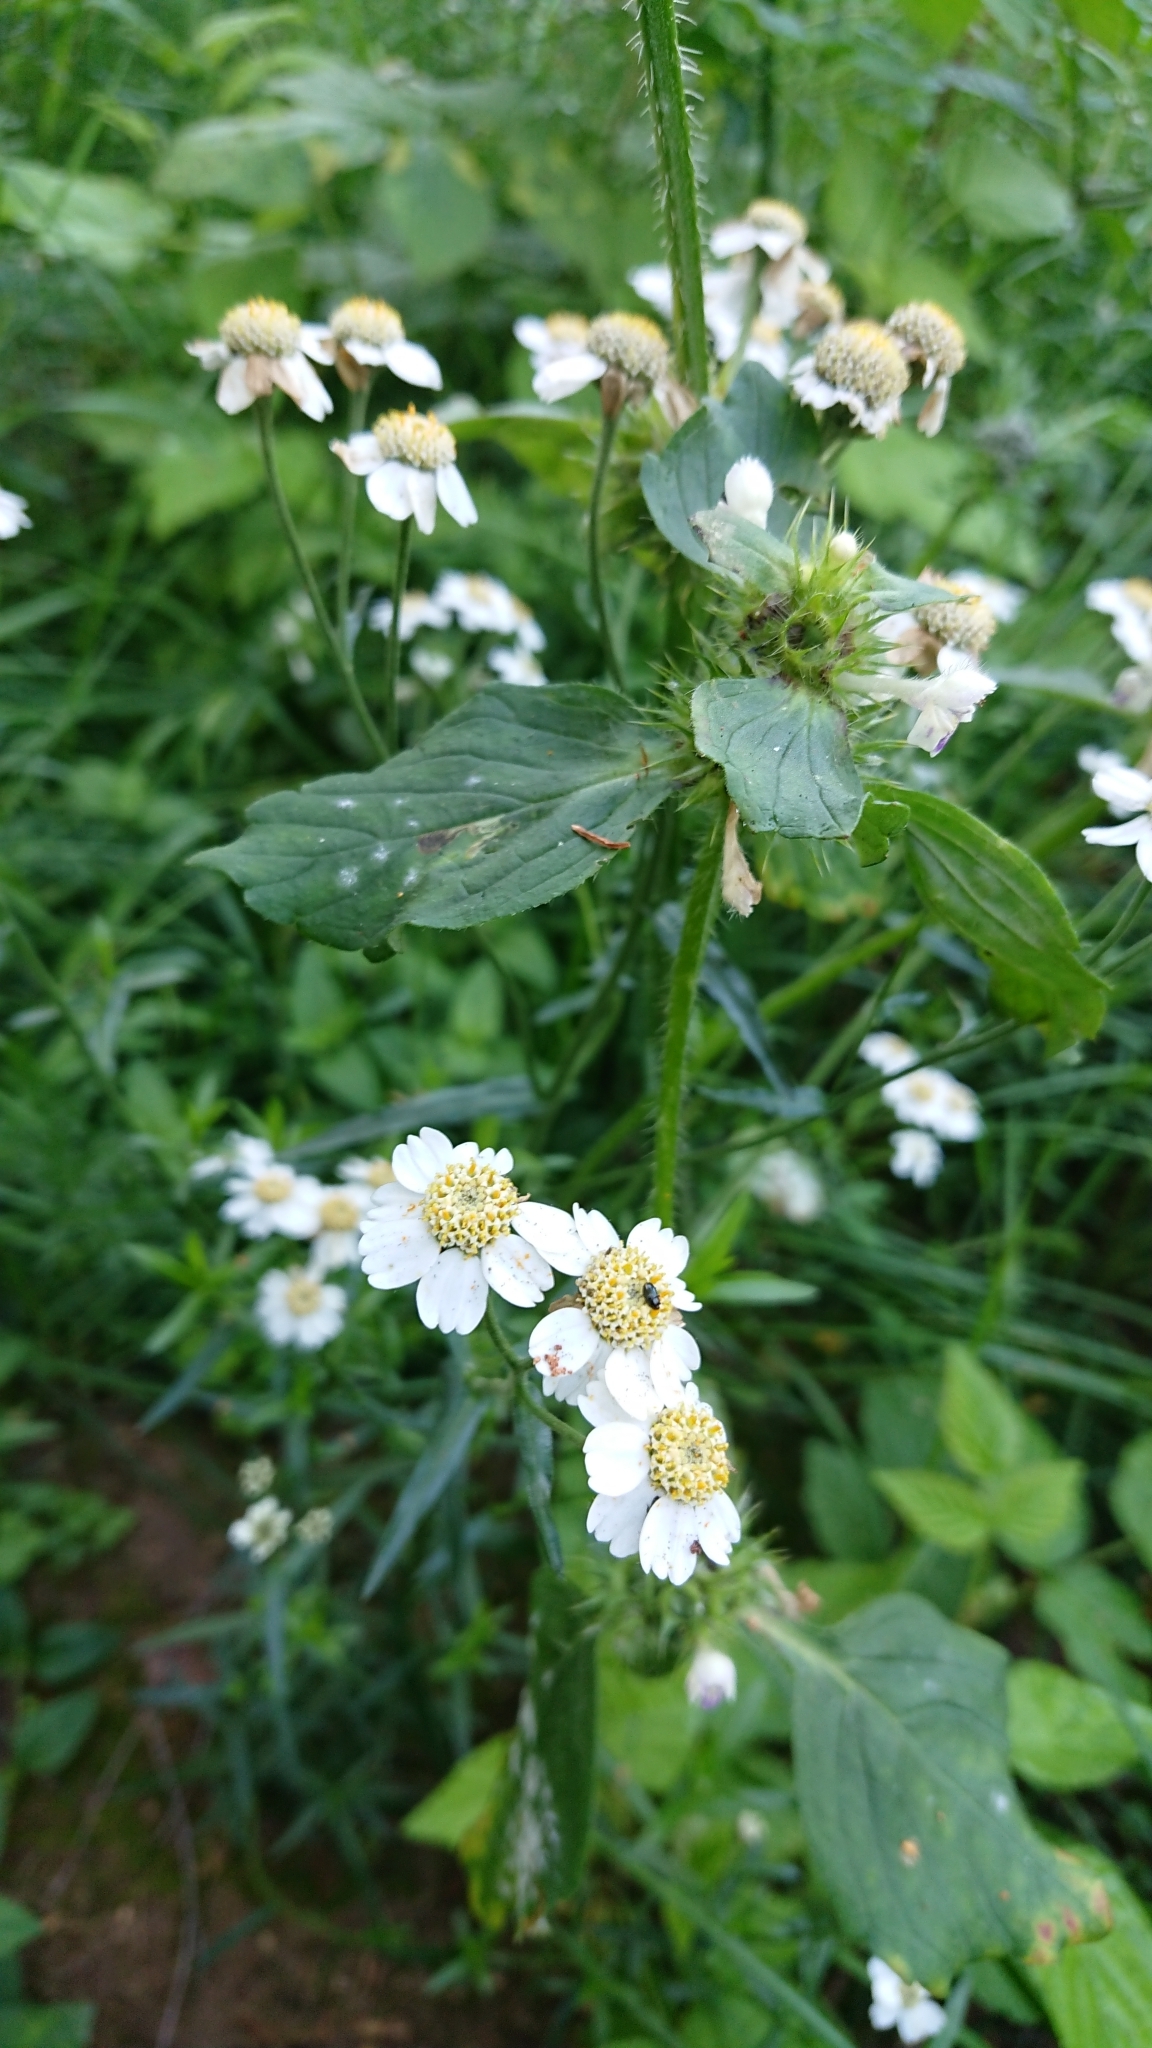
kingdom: Plantae
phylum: Tracheophyta
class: Magnoliopsida
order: Asterales
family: Asteraceae
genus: Achillea
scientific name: Achillea ptarmica
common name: Sneezeweed
